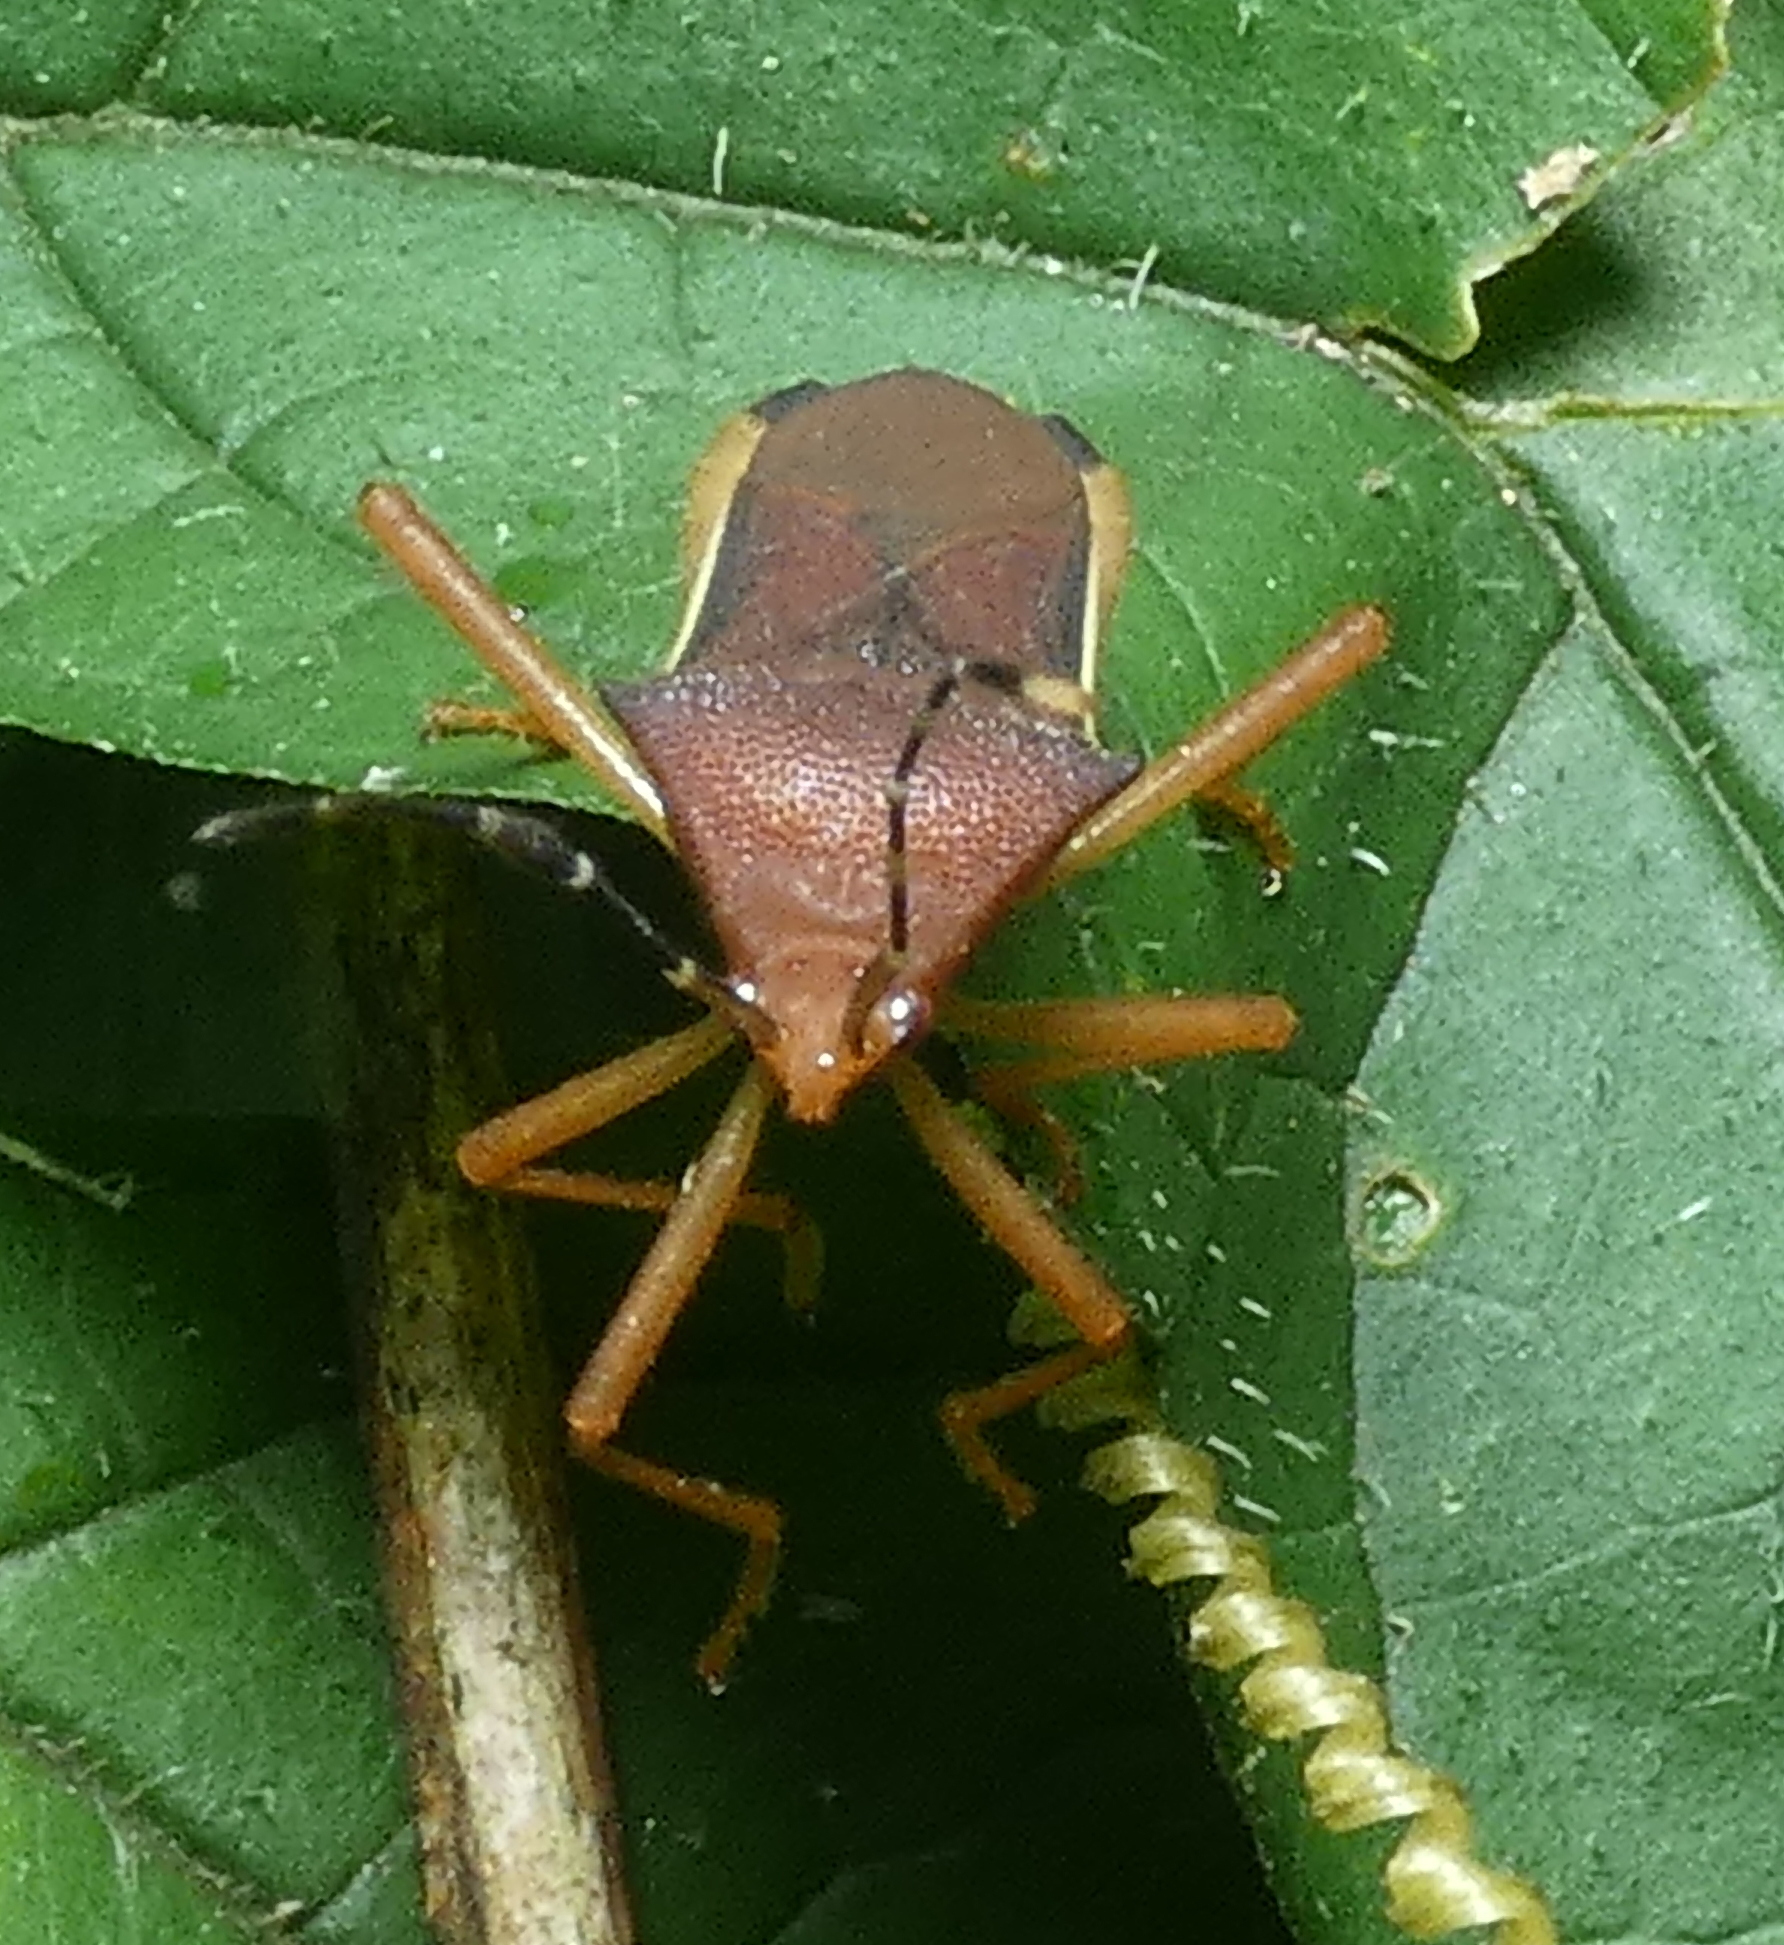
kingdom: Animalia
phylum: Arthropoda
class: Insecta
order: Hemiptera
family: Coreidae
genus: Anasa
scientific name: Anasa varicornis
